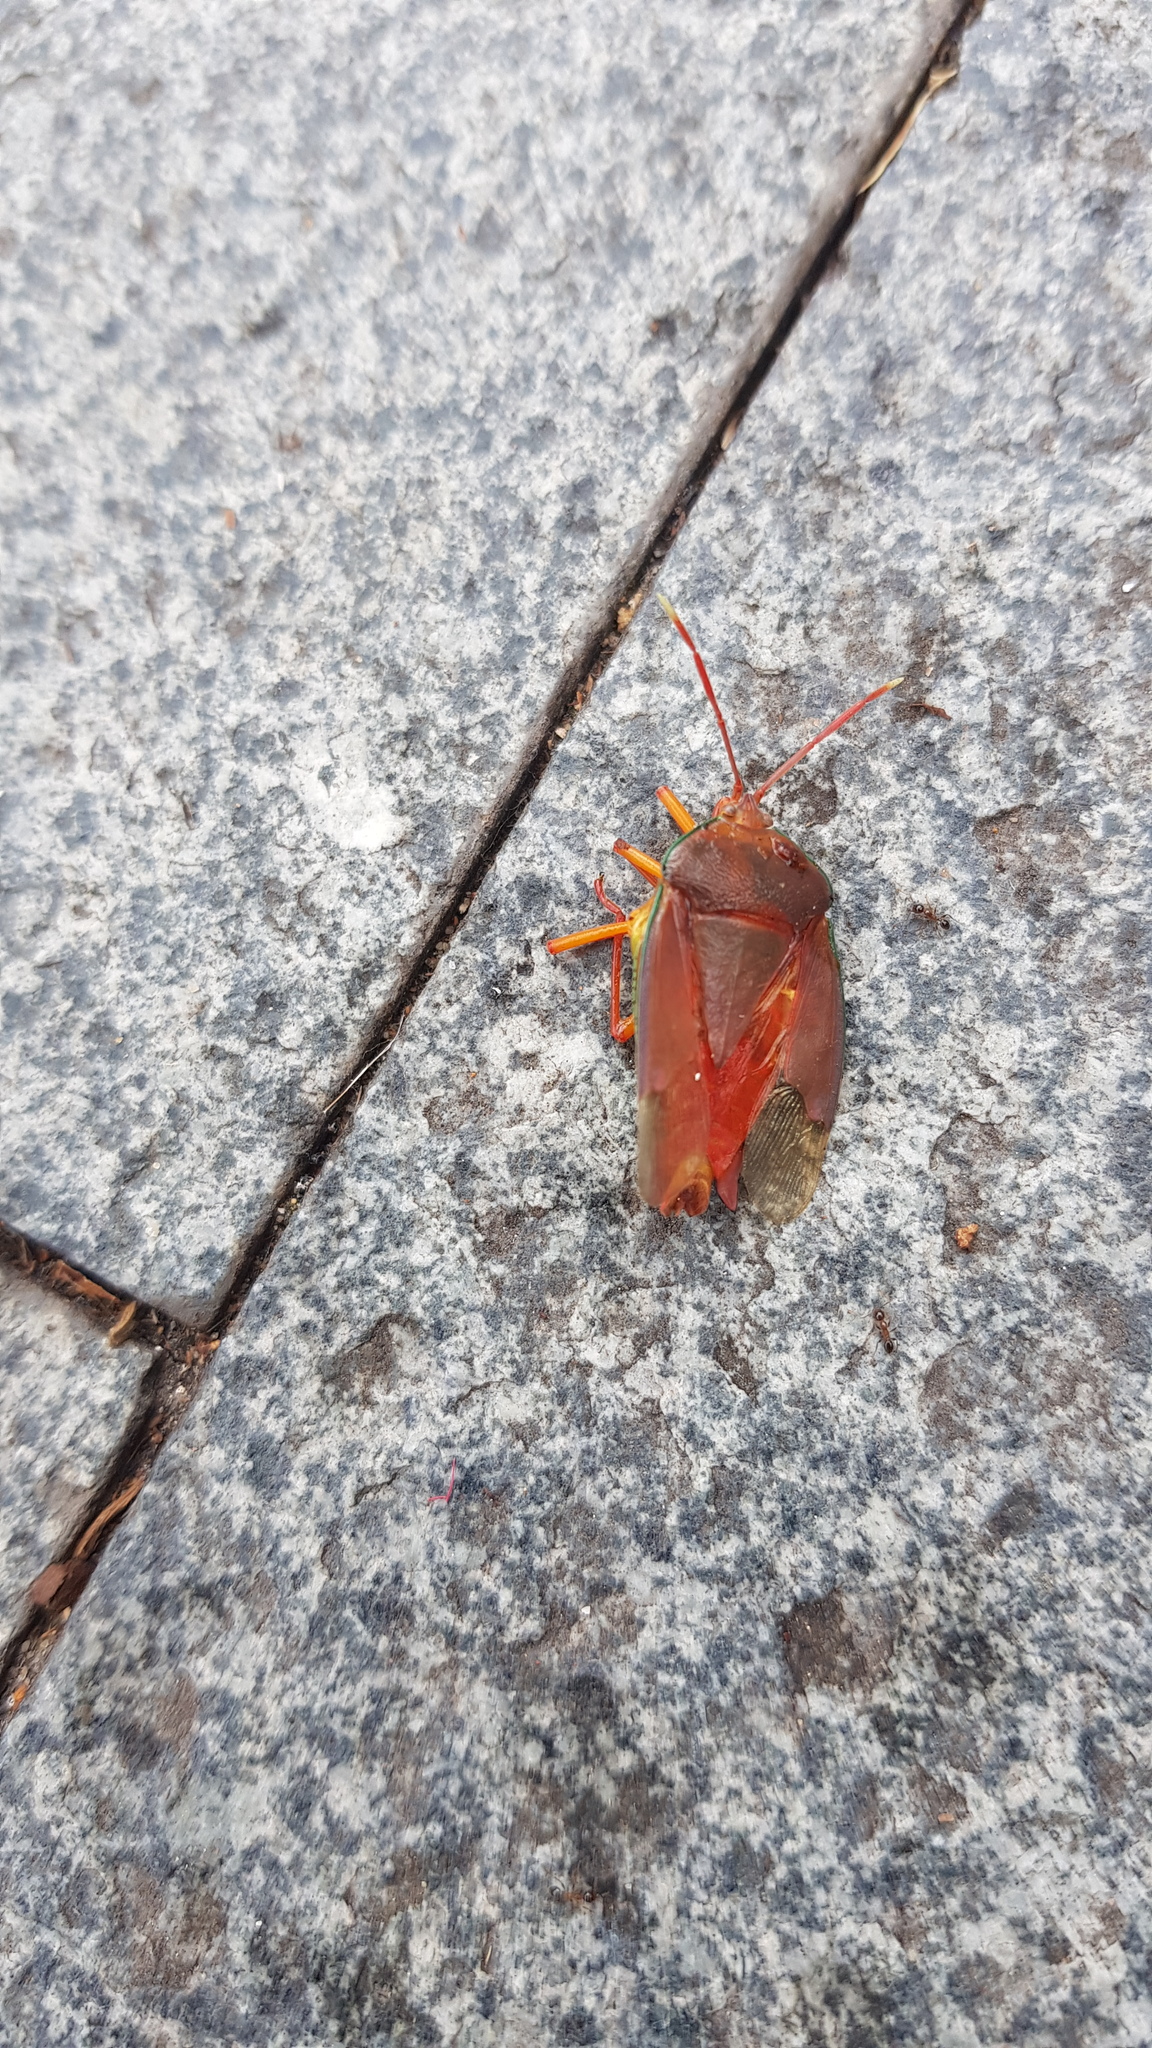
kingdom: Animalia
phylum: Arthropoda
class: Insecta
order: Hemiptera
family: Tessaratomidae
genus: Lyramorpha
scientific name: Lyramorpha rosea
